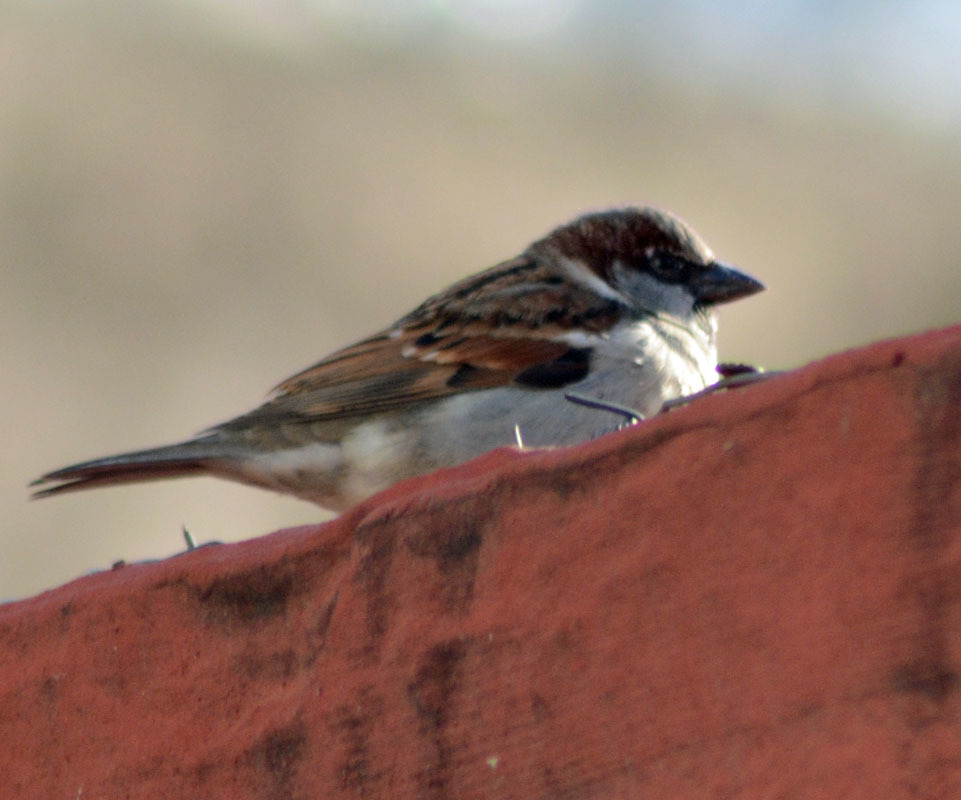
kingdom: Animalia
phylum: Chordata
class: Aves
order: Passeriformes
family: Passeridae
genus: Passer
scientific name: Passer domesticus
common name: House sparrow
